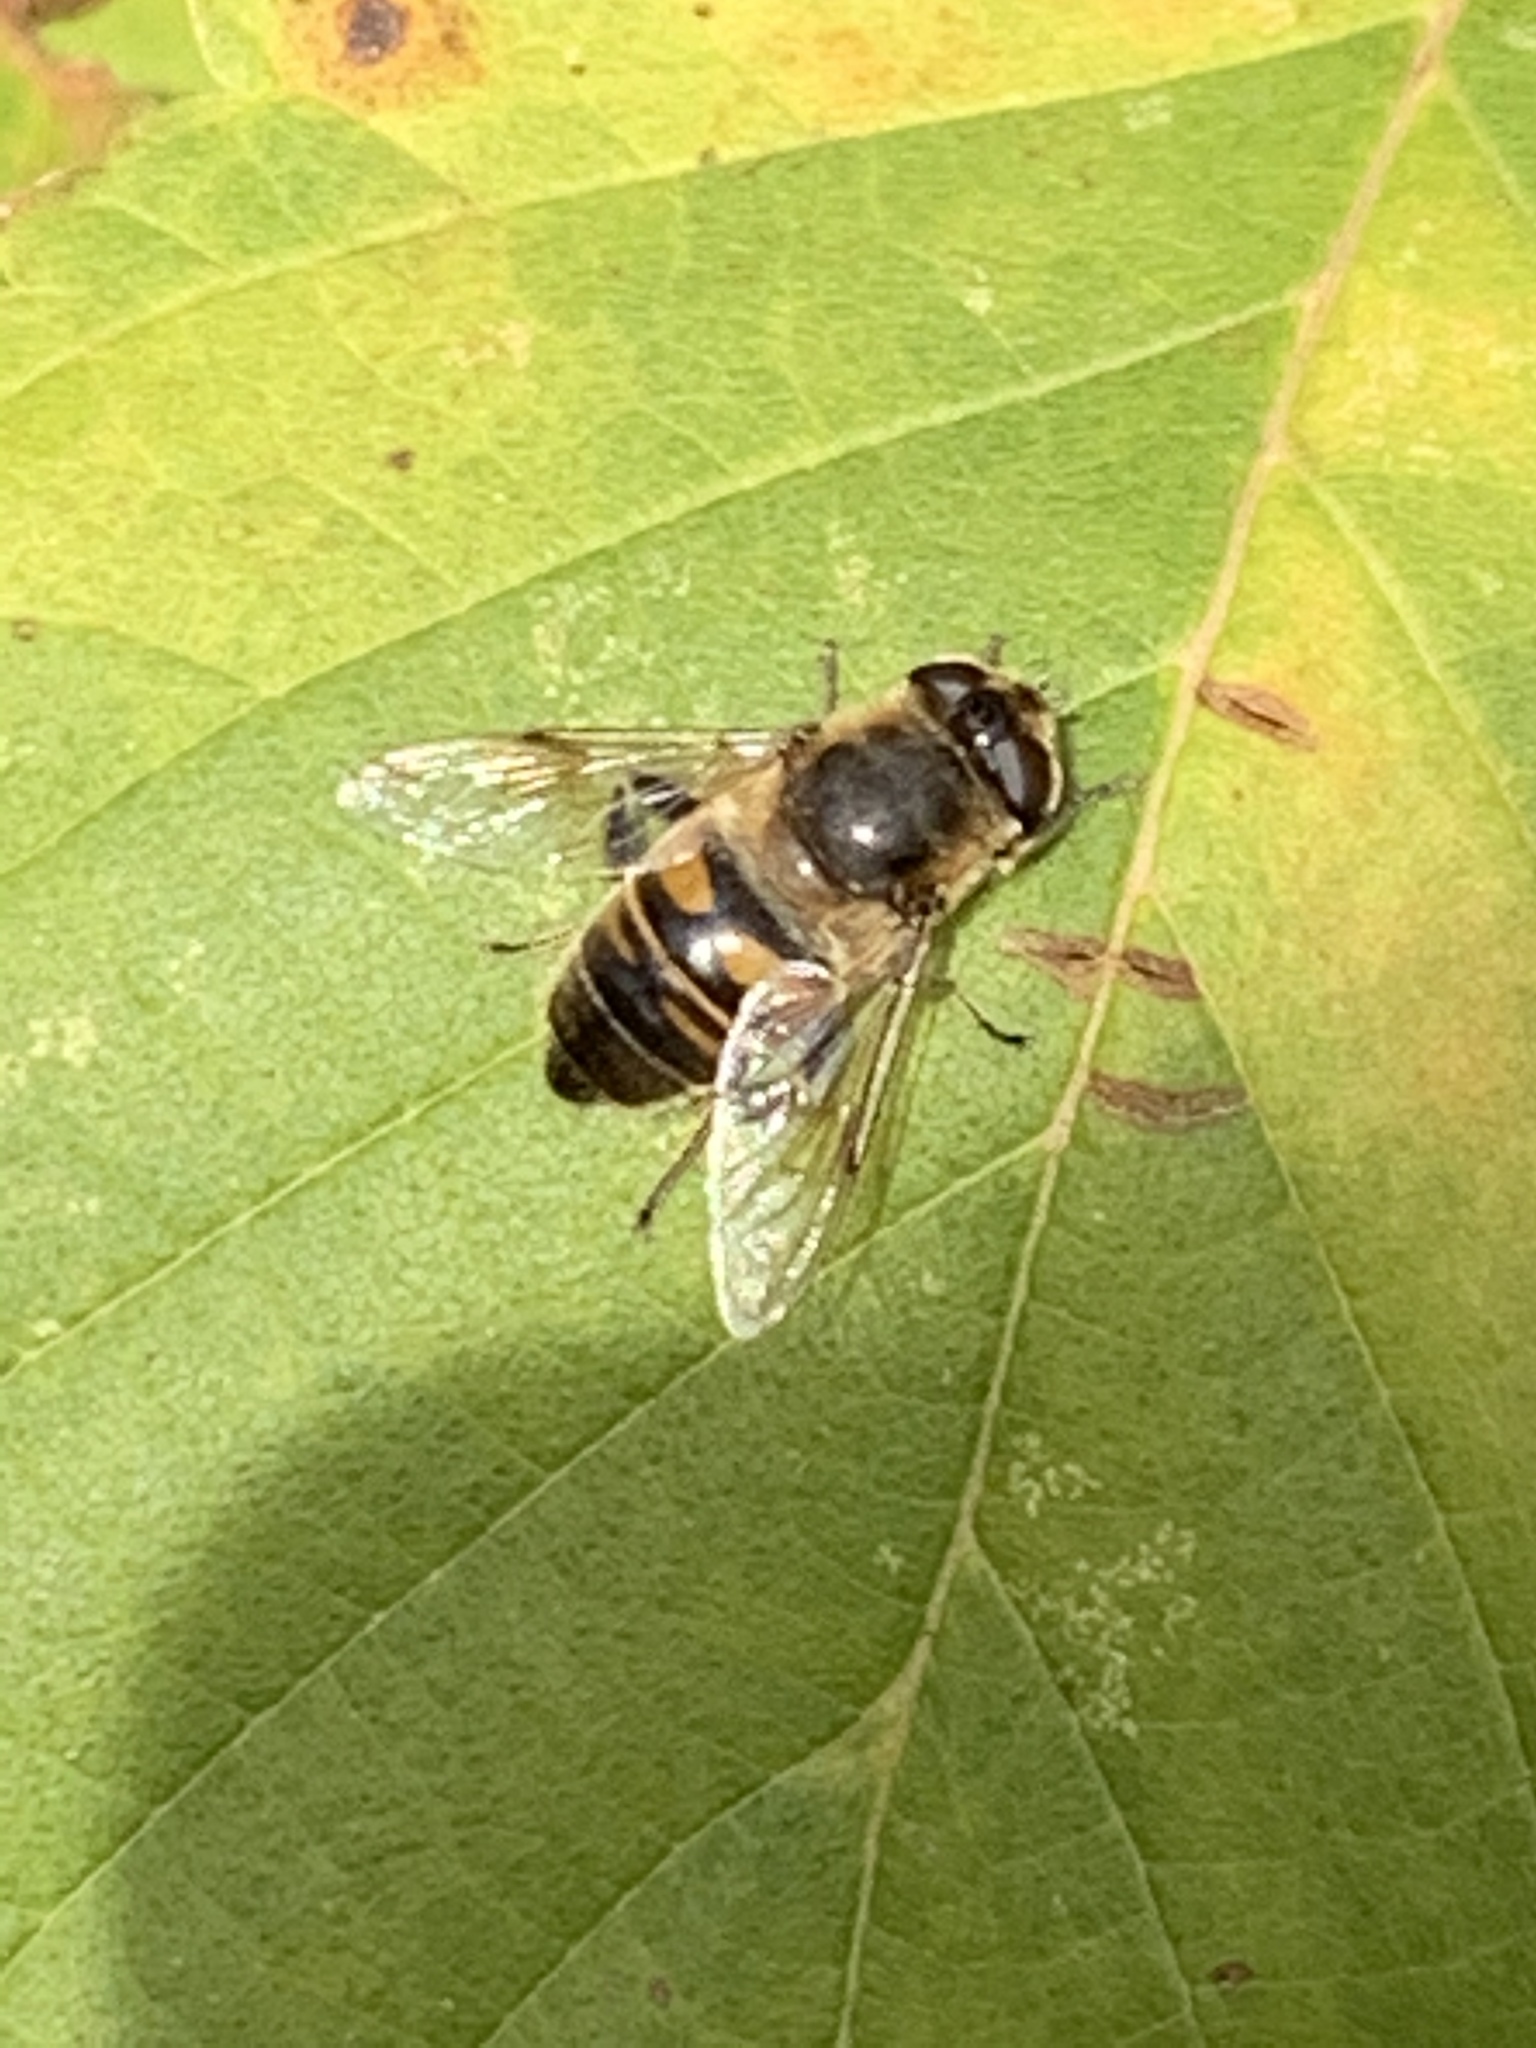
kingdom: Animalia
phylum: Arthropoda
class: Insecta
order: Diptera
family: Syrphidae
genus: Eristalis
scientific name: Eristalis tenax
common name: Drone fly
